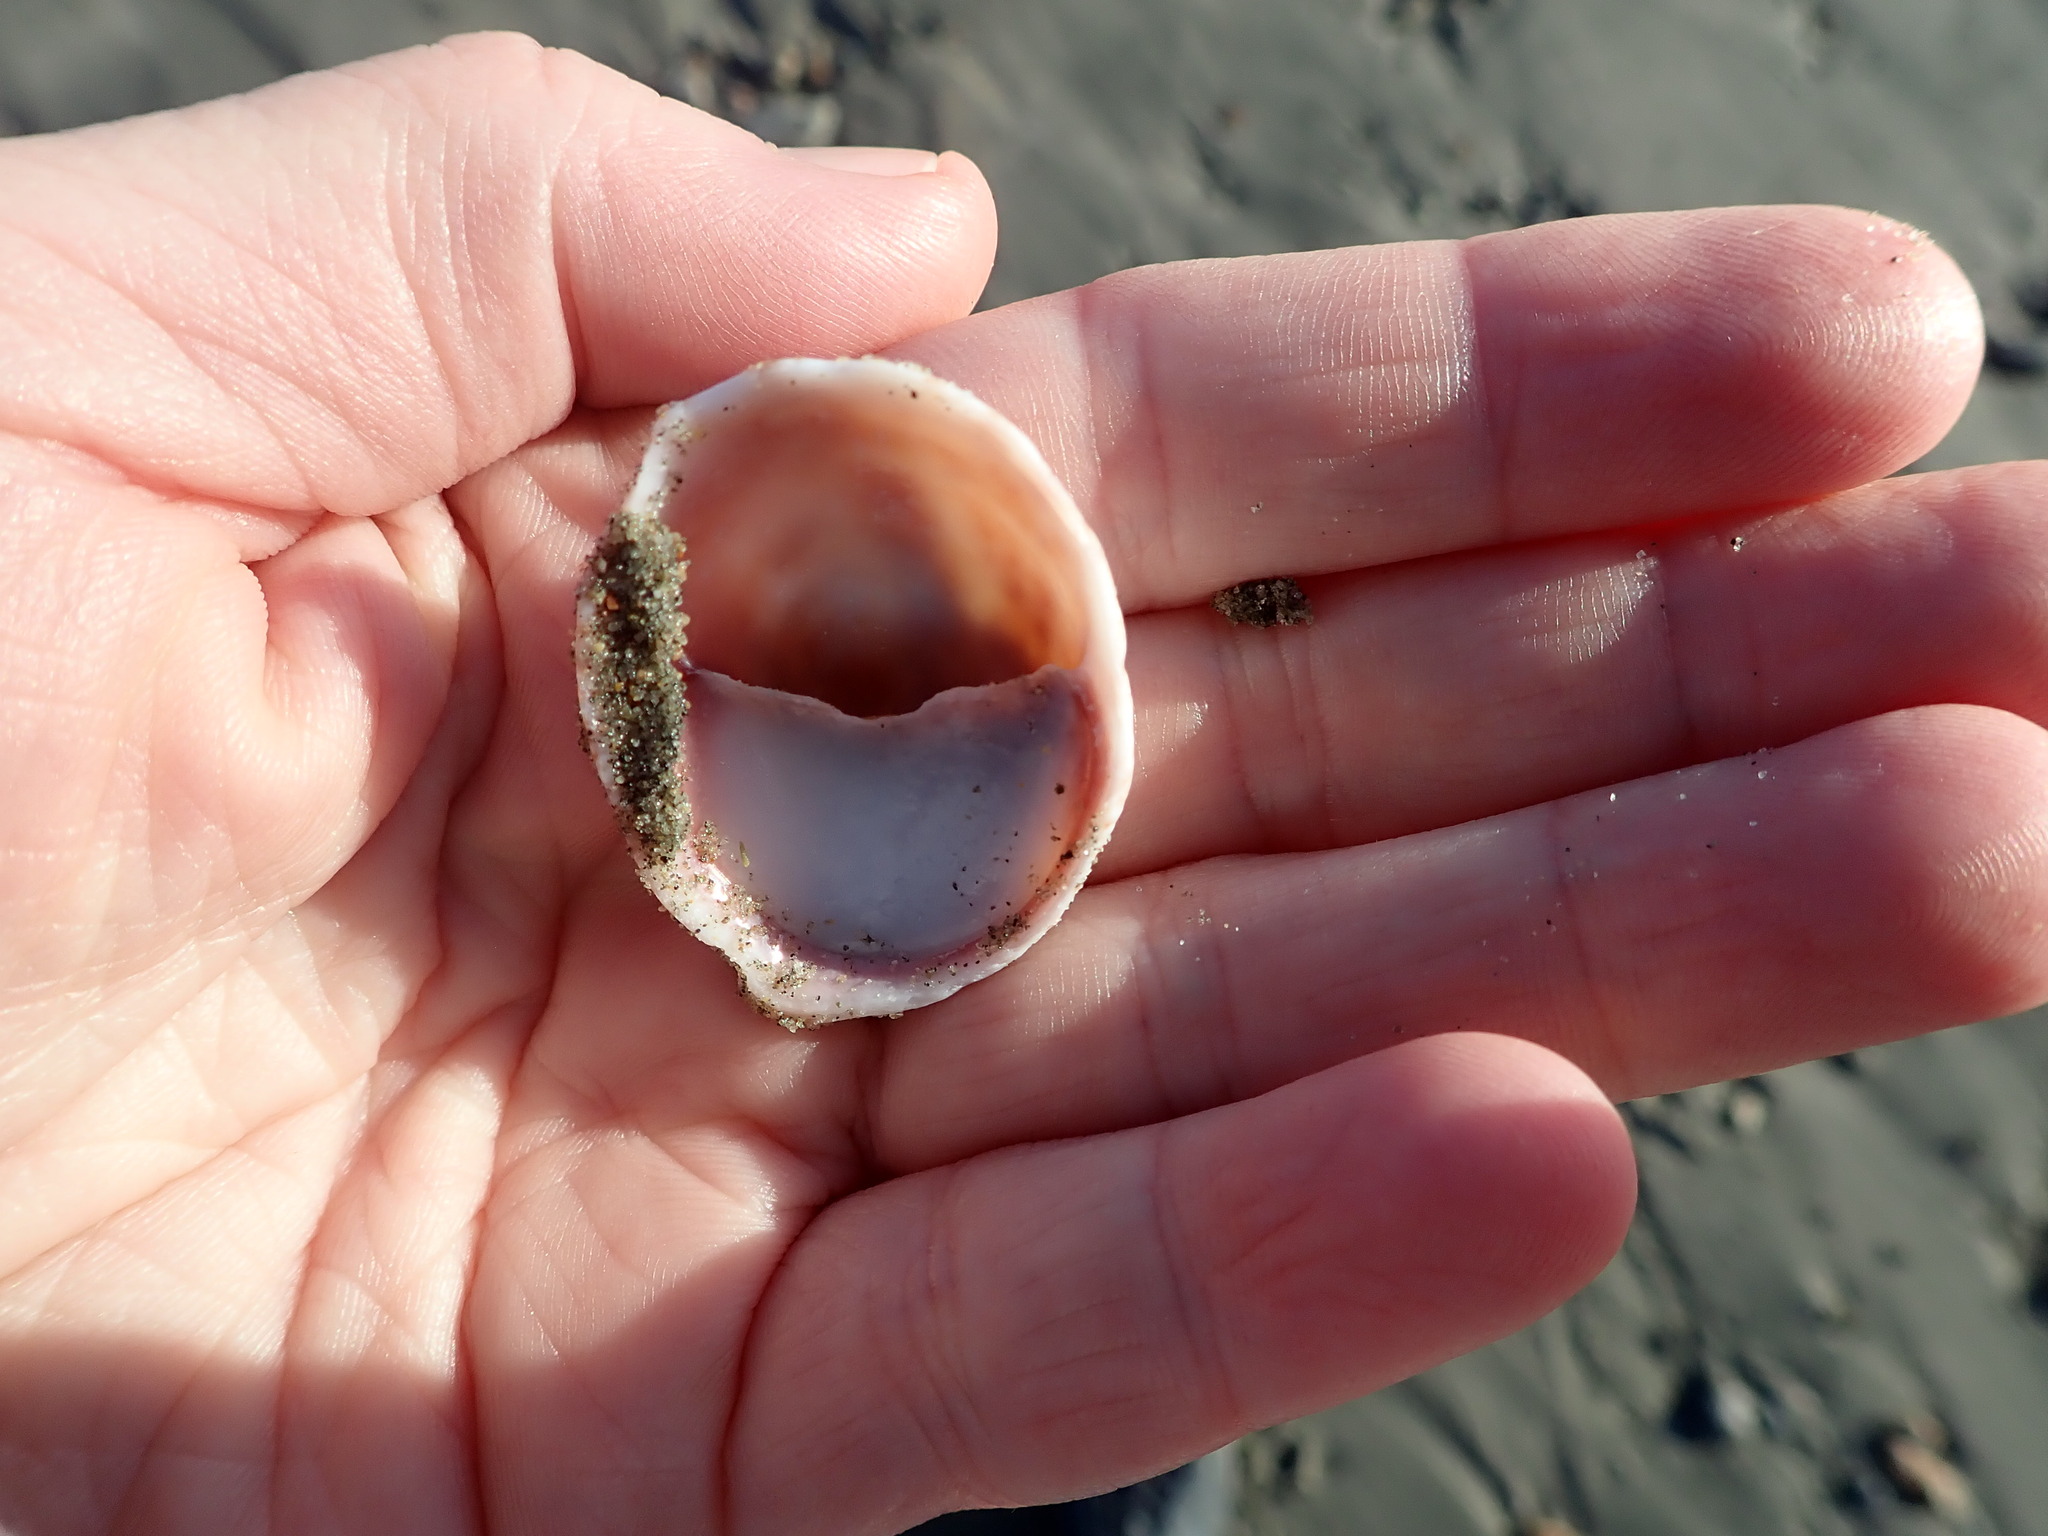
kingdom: Animalia
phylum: Mollusca
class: Gastropoda
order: Littorinimorpha
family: Calyptraeidae
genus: Crepidula
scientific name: Crepidula fornicata
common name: Slipper limpet
